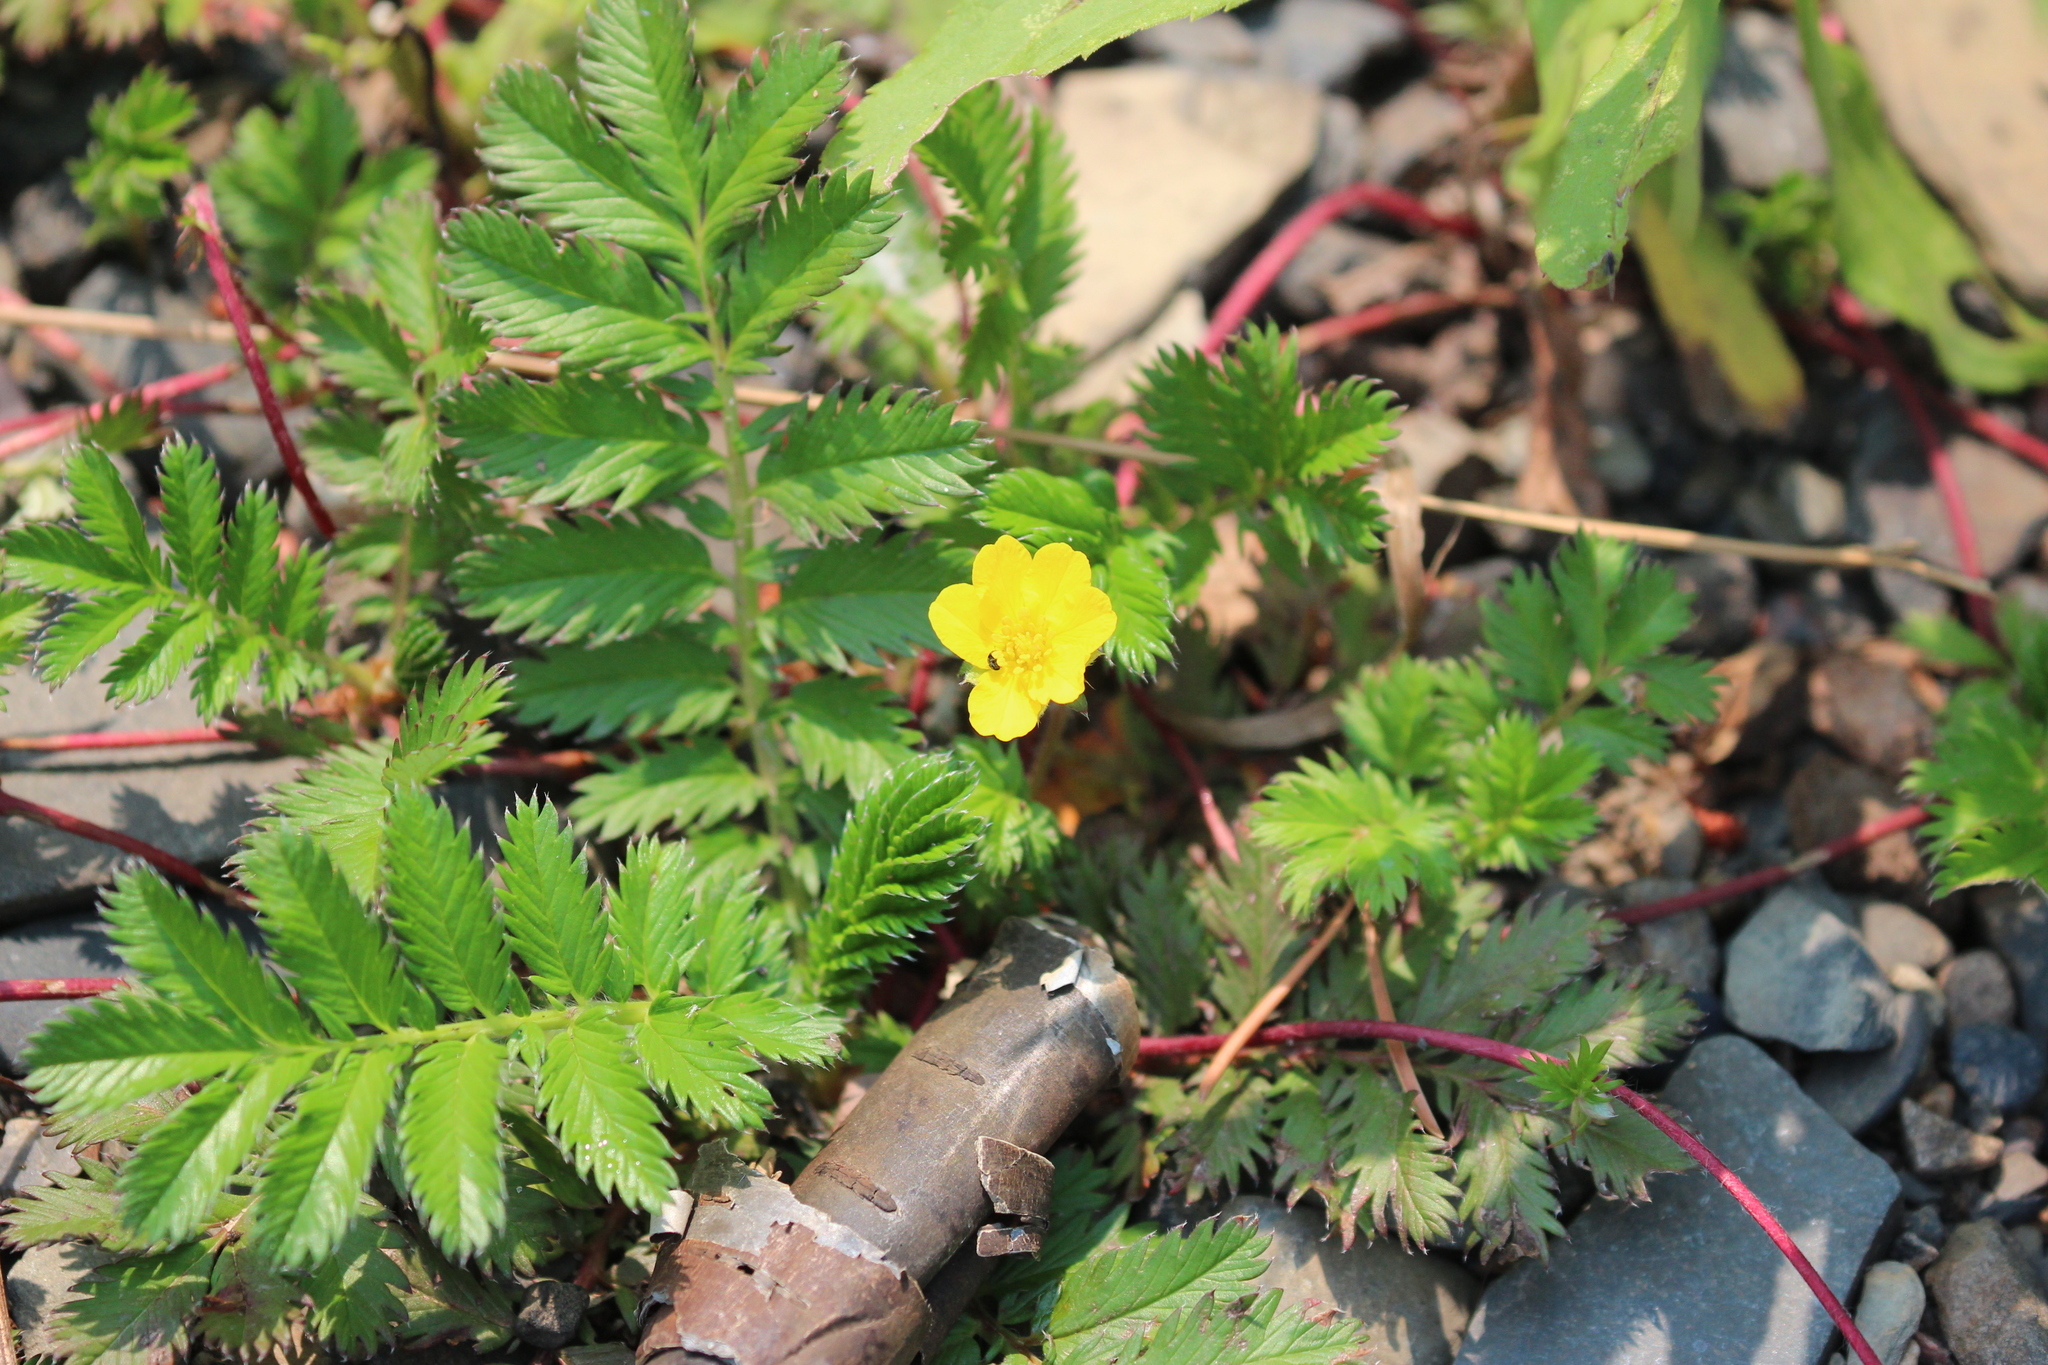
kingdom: Plantae
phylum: Tracheophyta
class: Magnoliopsida
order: Rosales
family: Rosaceae
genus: Argentina
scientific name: Argentina anserina
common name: Common silverweed
